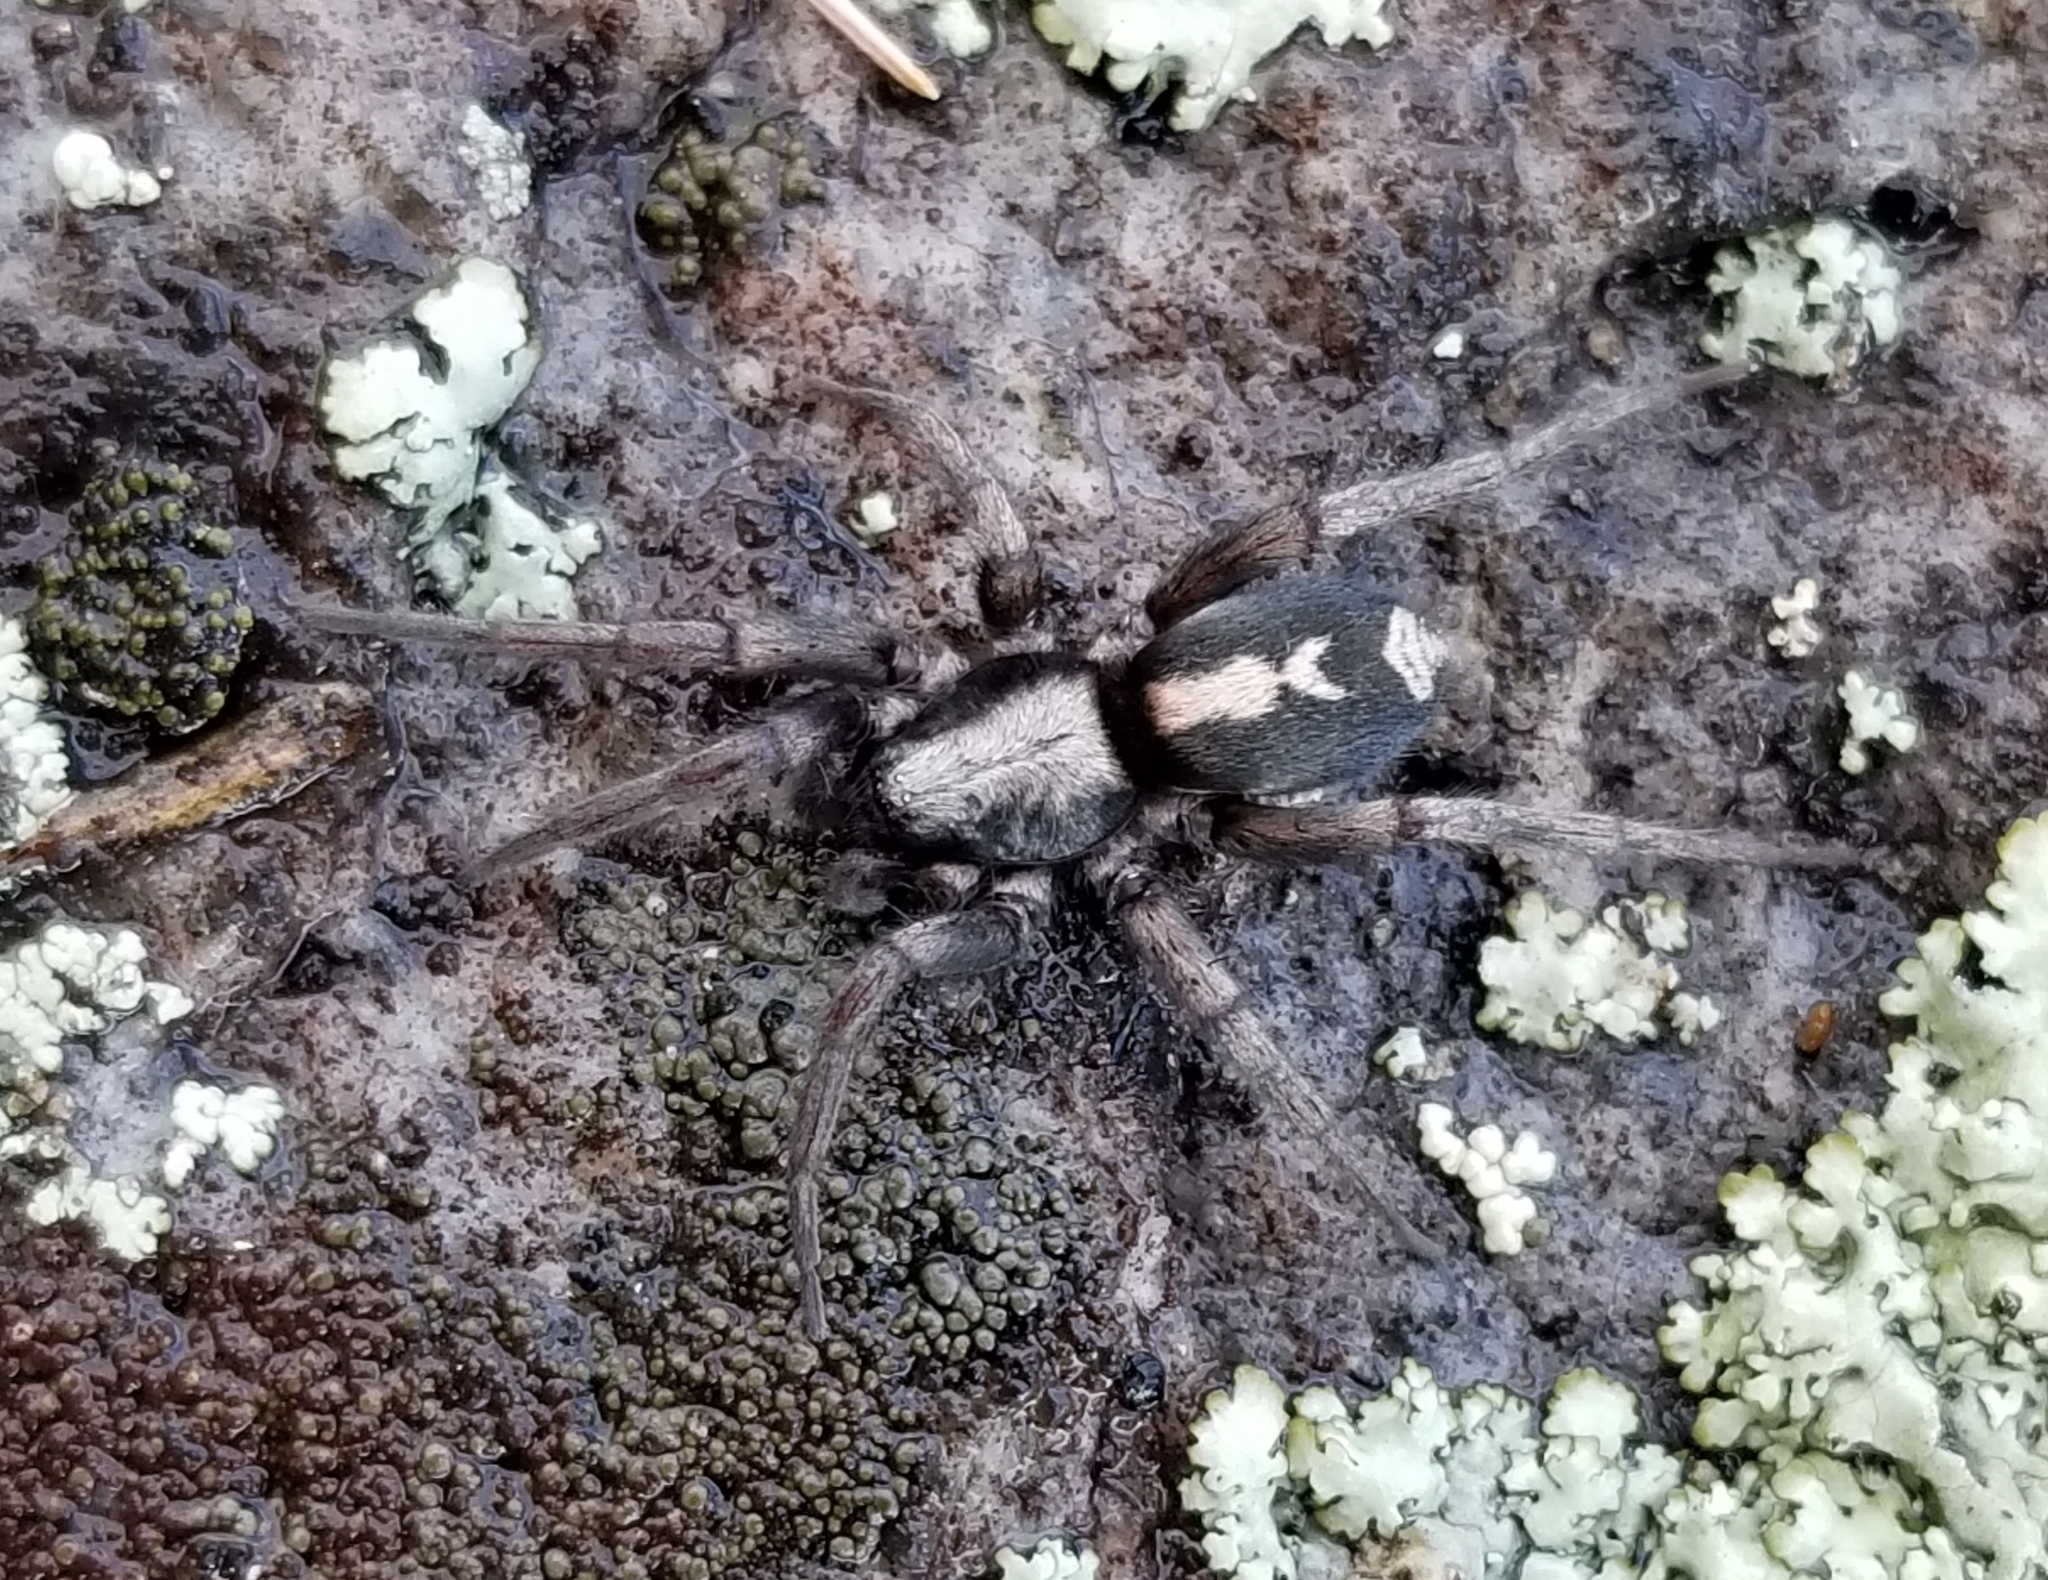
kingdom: Animalia
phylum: Arthropoda
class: Arachnida
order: Araneae
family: Gnaphosidae
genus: Herpyllus
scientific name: Herpyllus ecclesiasticus
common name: Eastern parson spider
